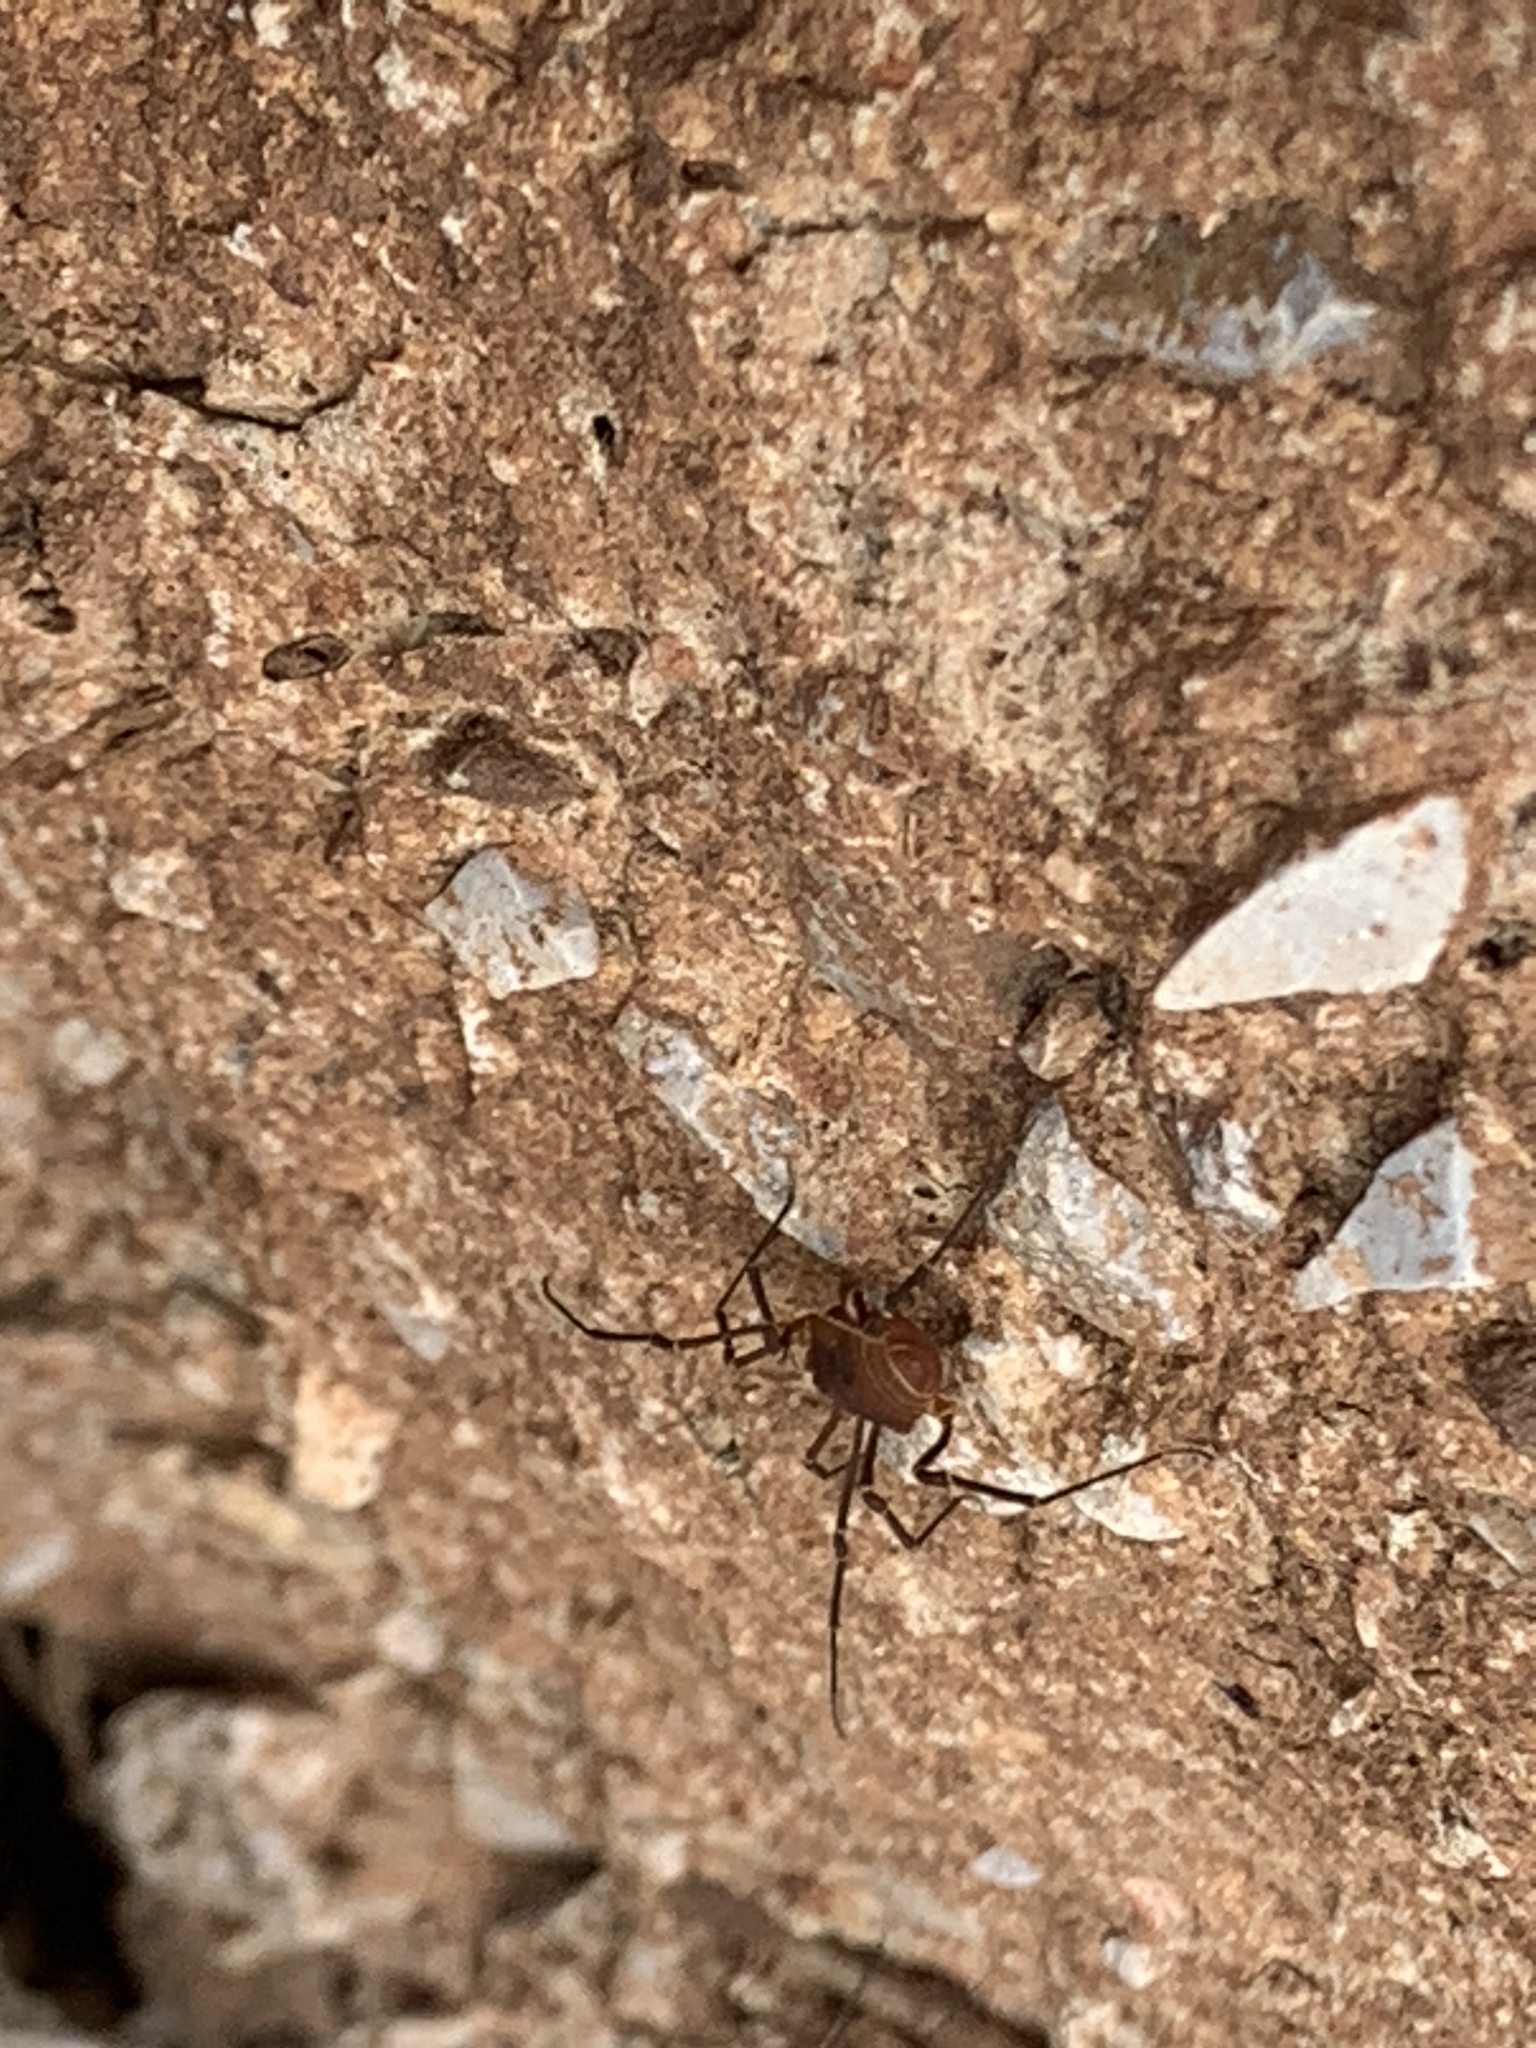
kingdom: Animalia
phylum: Arthropoda
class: Arachnida
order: Opiliones
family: Cosmetidae
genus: Libitioides
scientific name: Libitioides sayi
